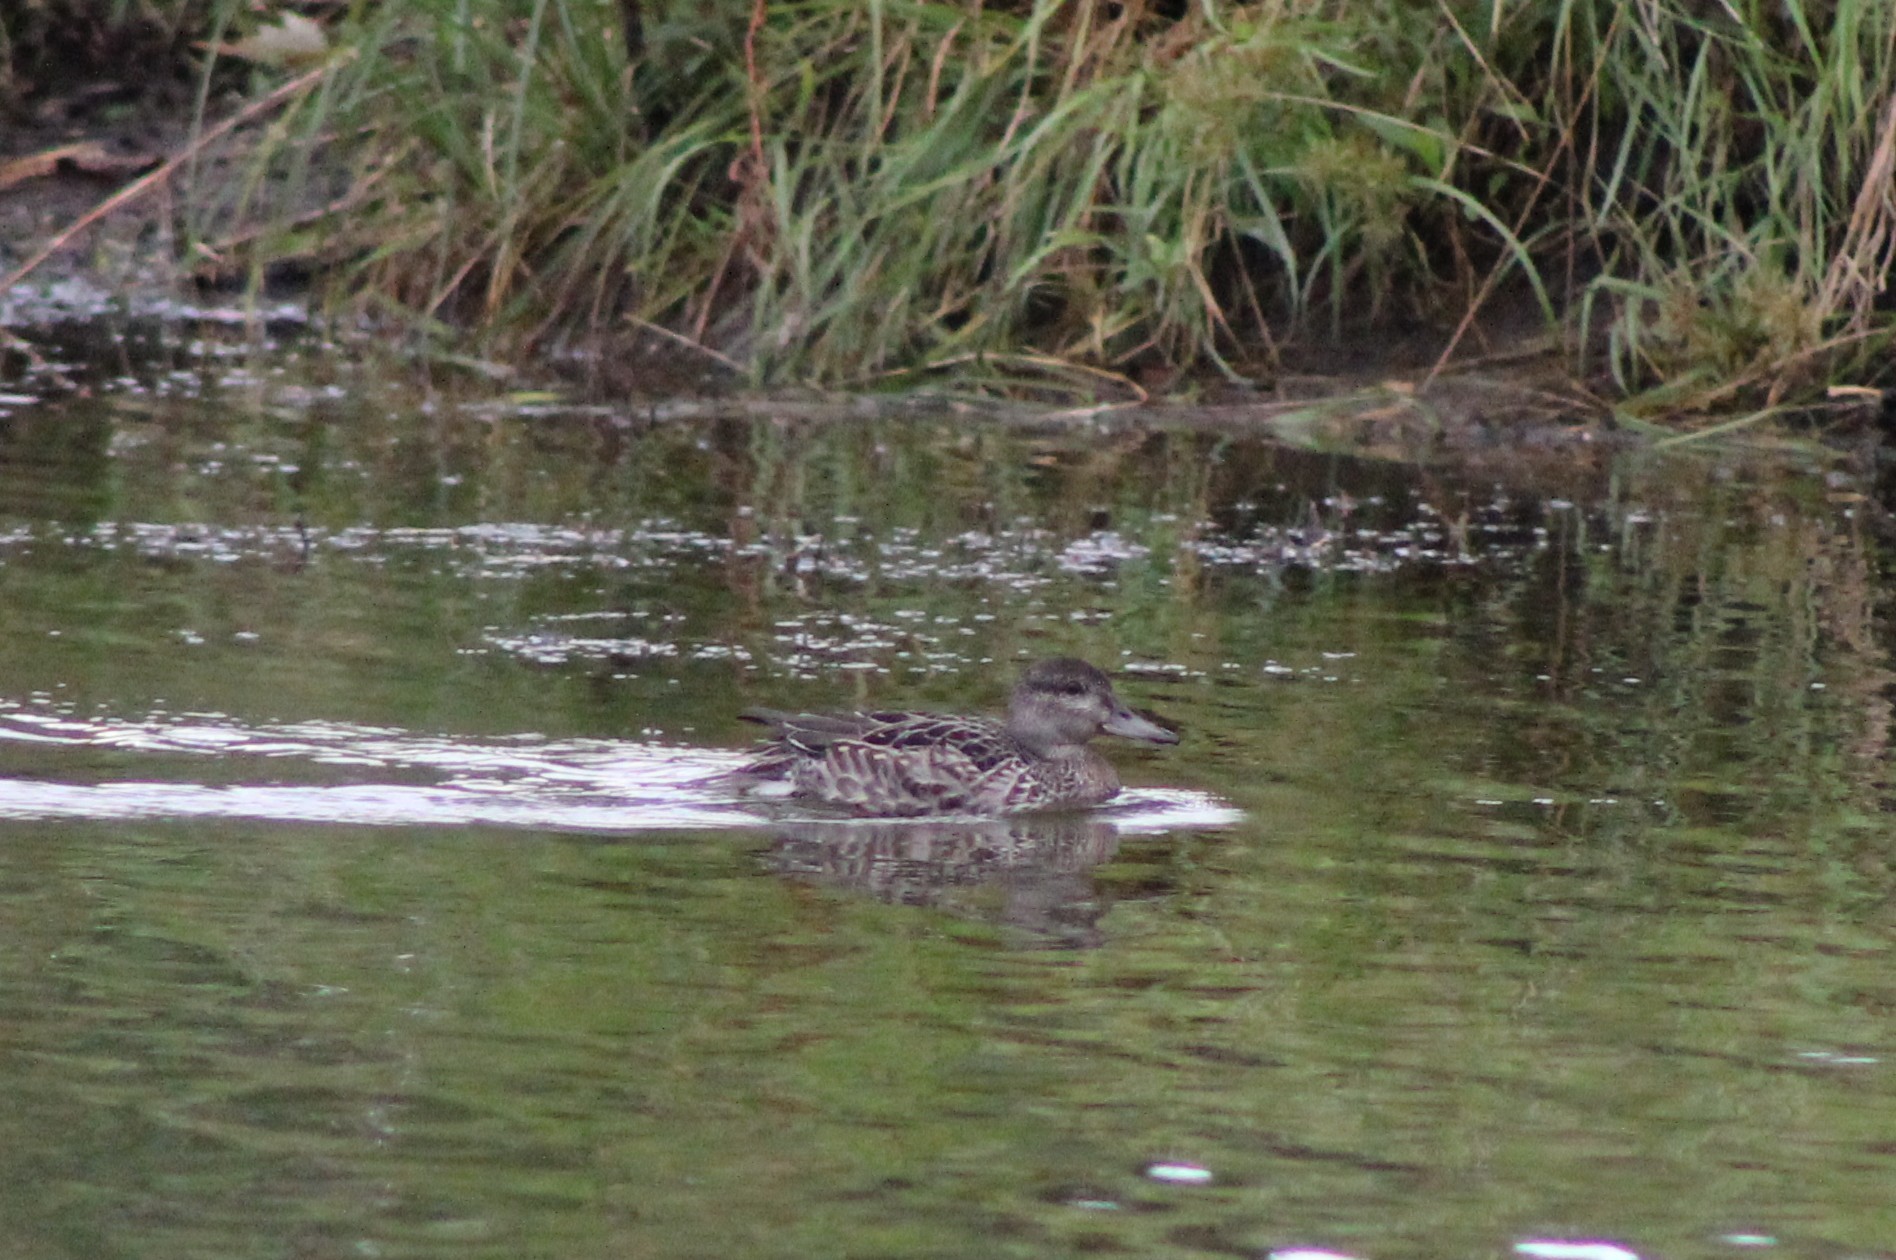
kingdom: Animalia
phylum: Chordata
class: Aves
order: Anseriformes
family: Anatidae
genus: Anas
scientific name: Anas crecca
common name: Eurasian teal
